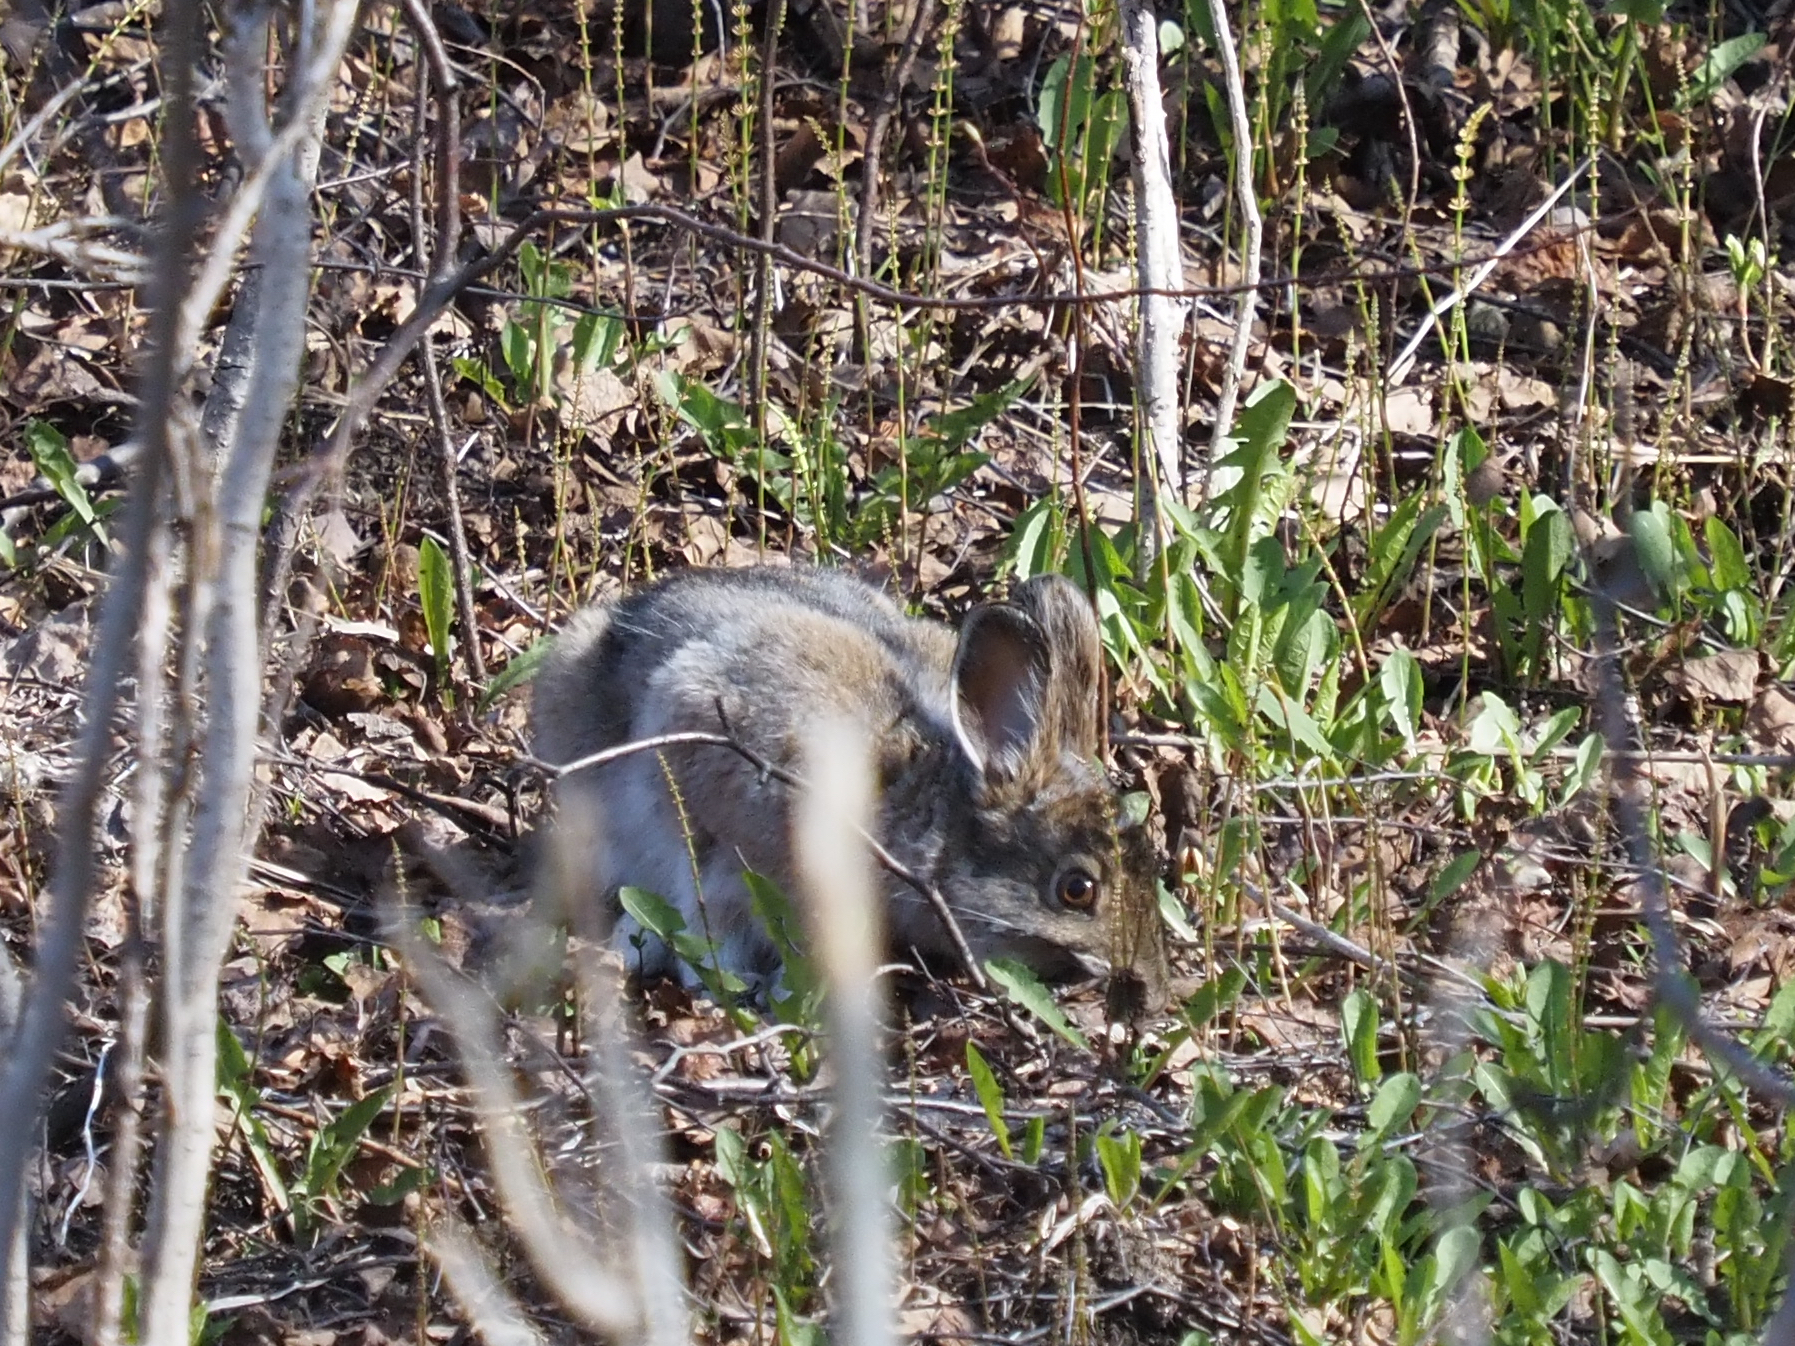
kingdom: Animalia
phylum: Chordata
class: Mammalia
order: Lagomorpha
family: Leporidae
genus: Lepus
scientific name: Lepus americanus
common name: Snowshoe hare
